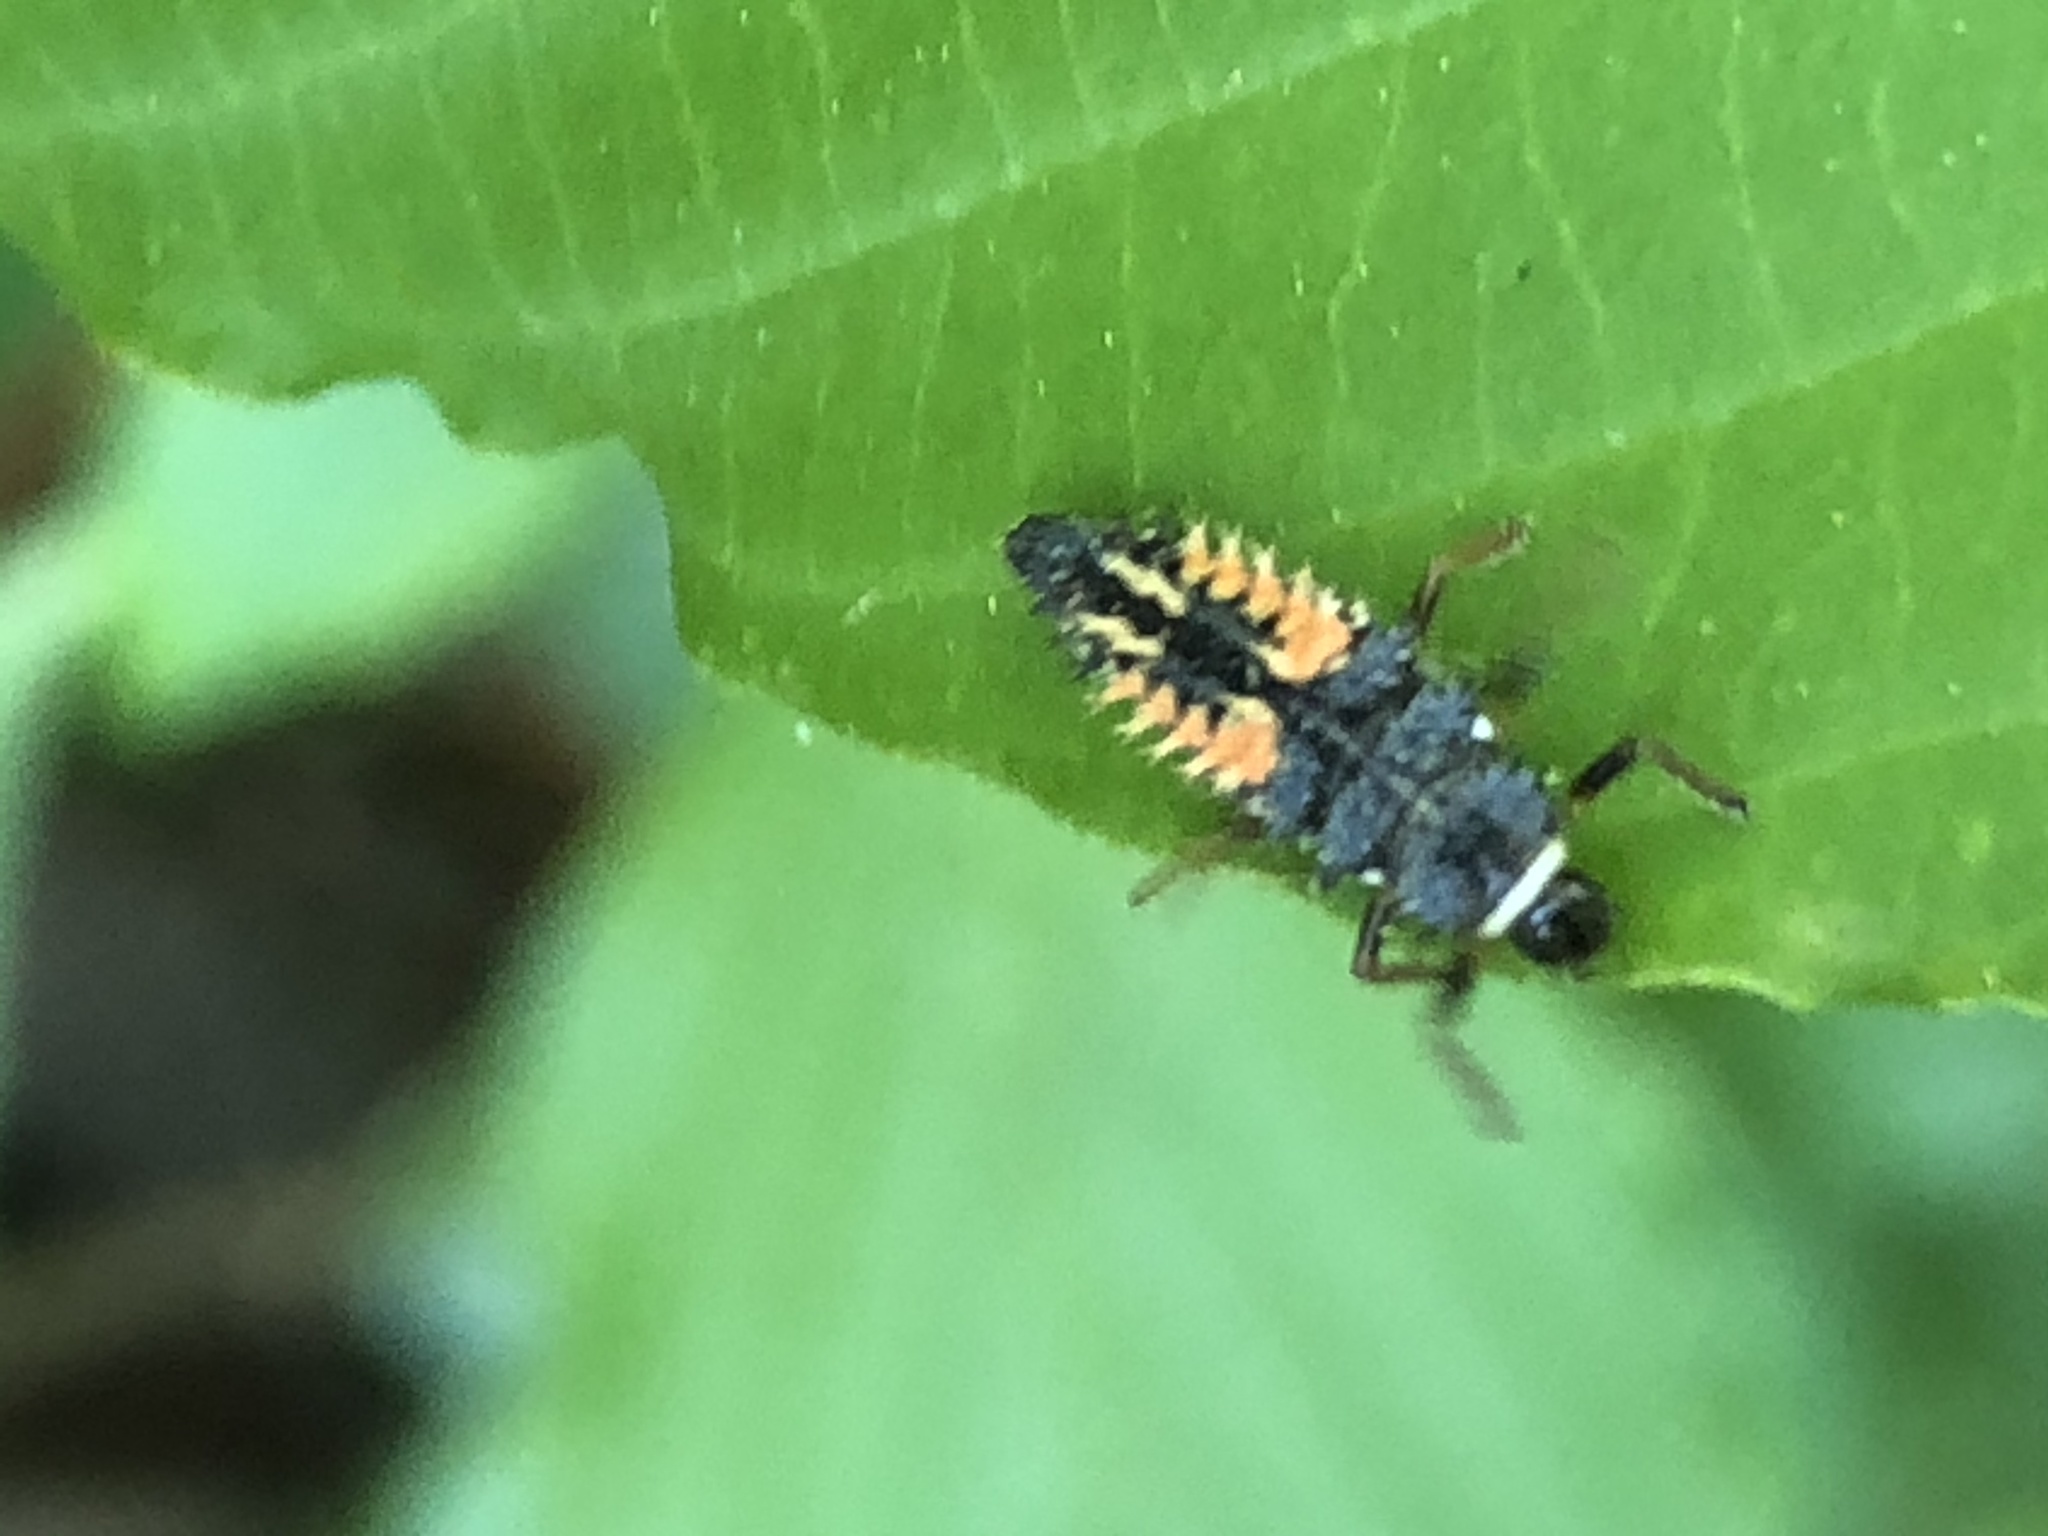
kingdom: Animalia
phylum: Arthropoda
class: Insecta
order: Coleoptera
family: Coccinellidae
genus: Harmonia
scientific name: Harmonia axyridis
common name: Harlequin ladybird
